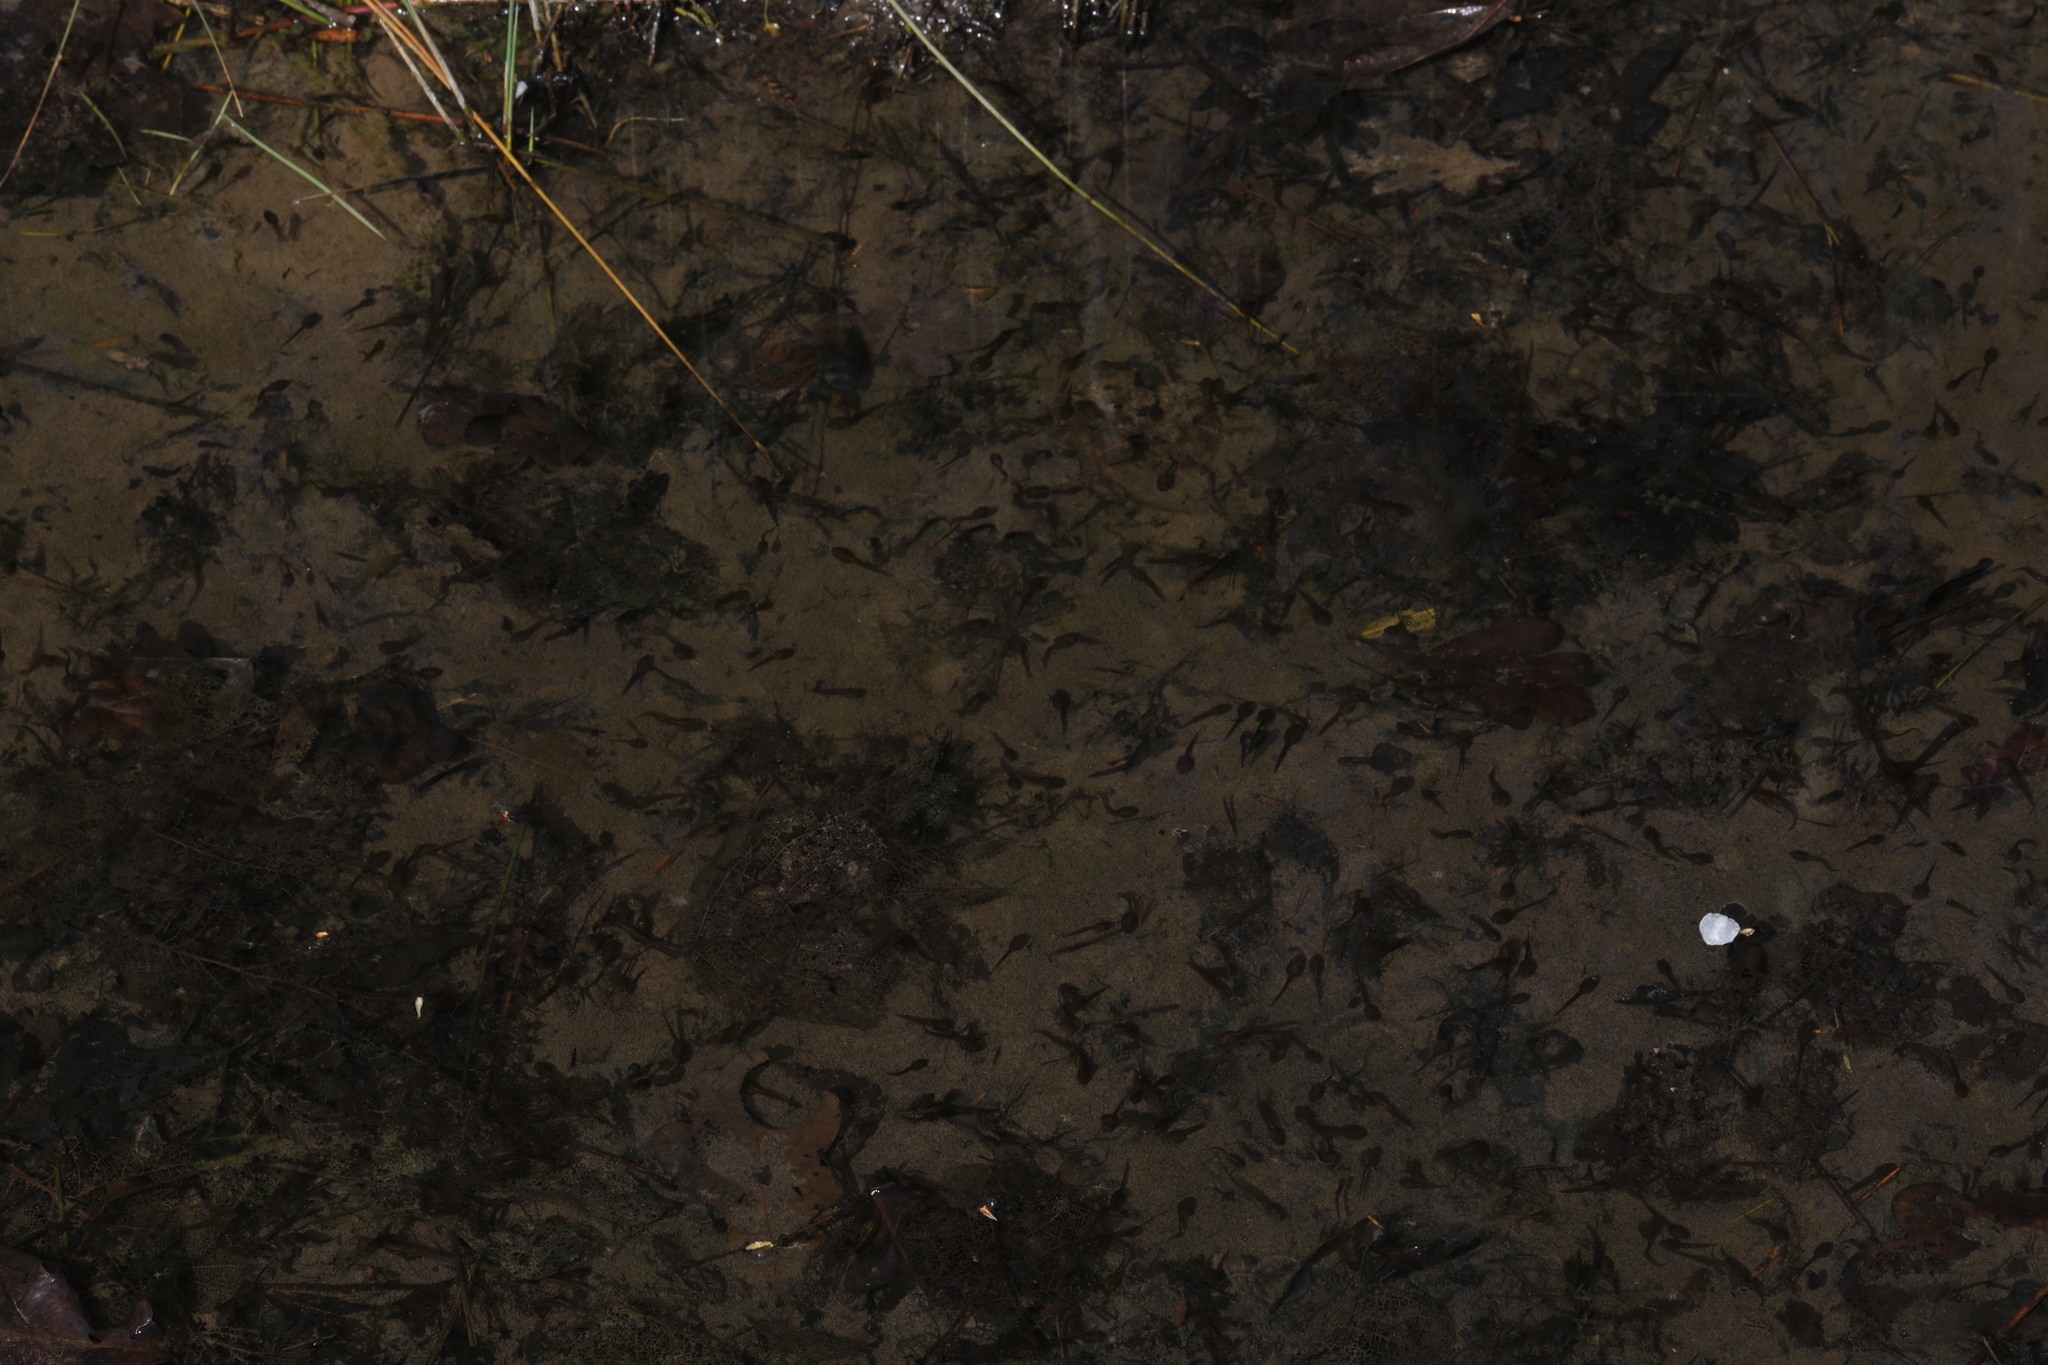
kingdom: Animalia
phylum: Chordata
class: Amphibia
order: Anura
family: Ranidae
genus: Rana
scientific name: Rana temporaria
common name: Common frog
